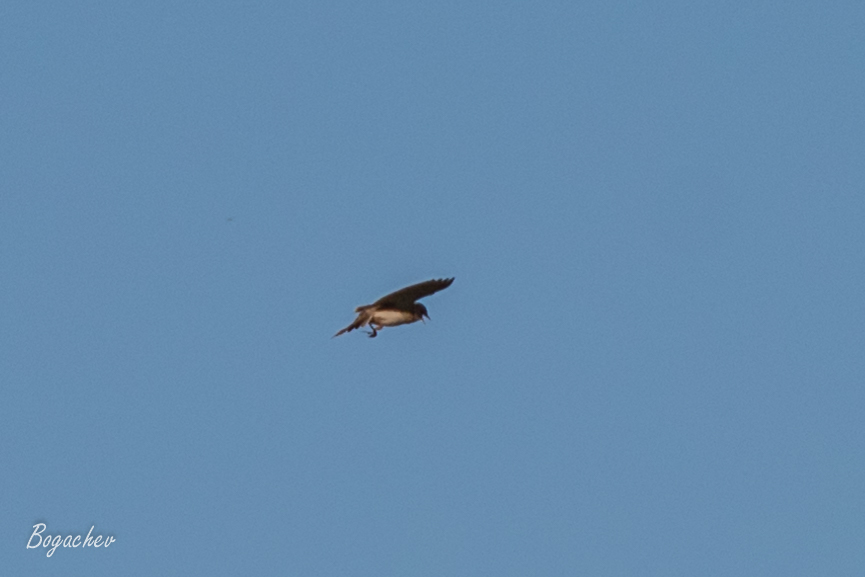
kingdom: Animalia
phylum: Chordata
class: Aves
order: Passeriformes
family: Alaudidae
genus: Alauda
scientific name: Alauda arvensis
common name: Eurasian skylark
